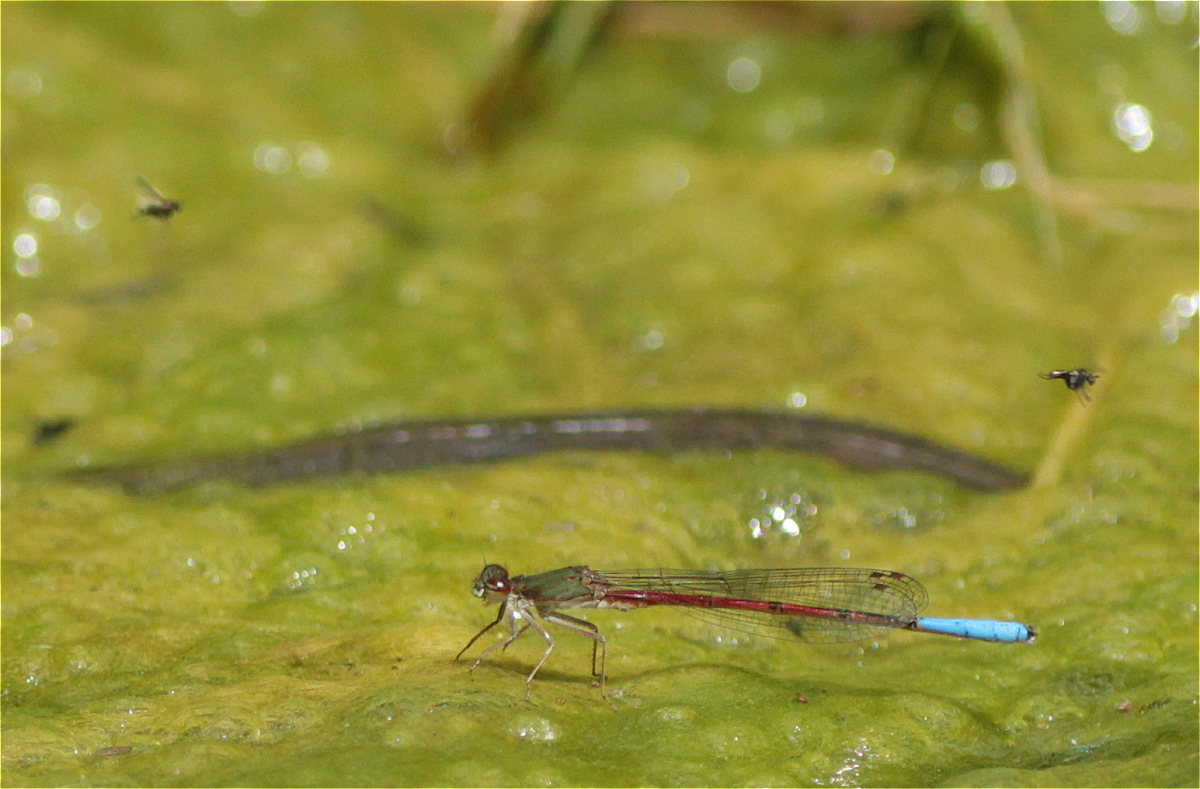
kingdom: Animalia
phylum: Arthropoda
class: Insecta
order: Odonata
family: Coenagrionidae
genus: Oxyallagma
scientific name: Oxyallagma dissidens
